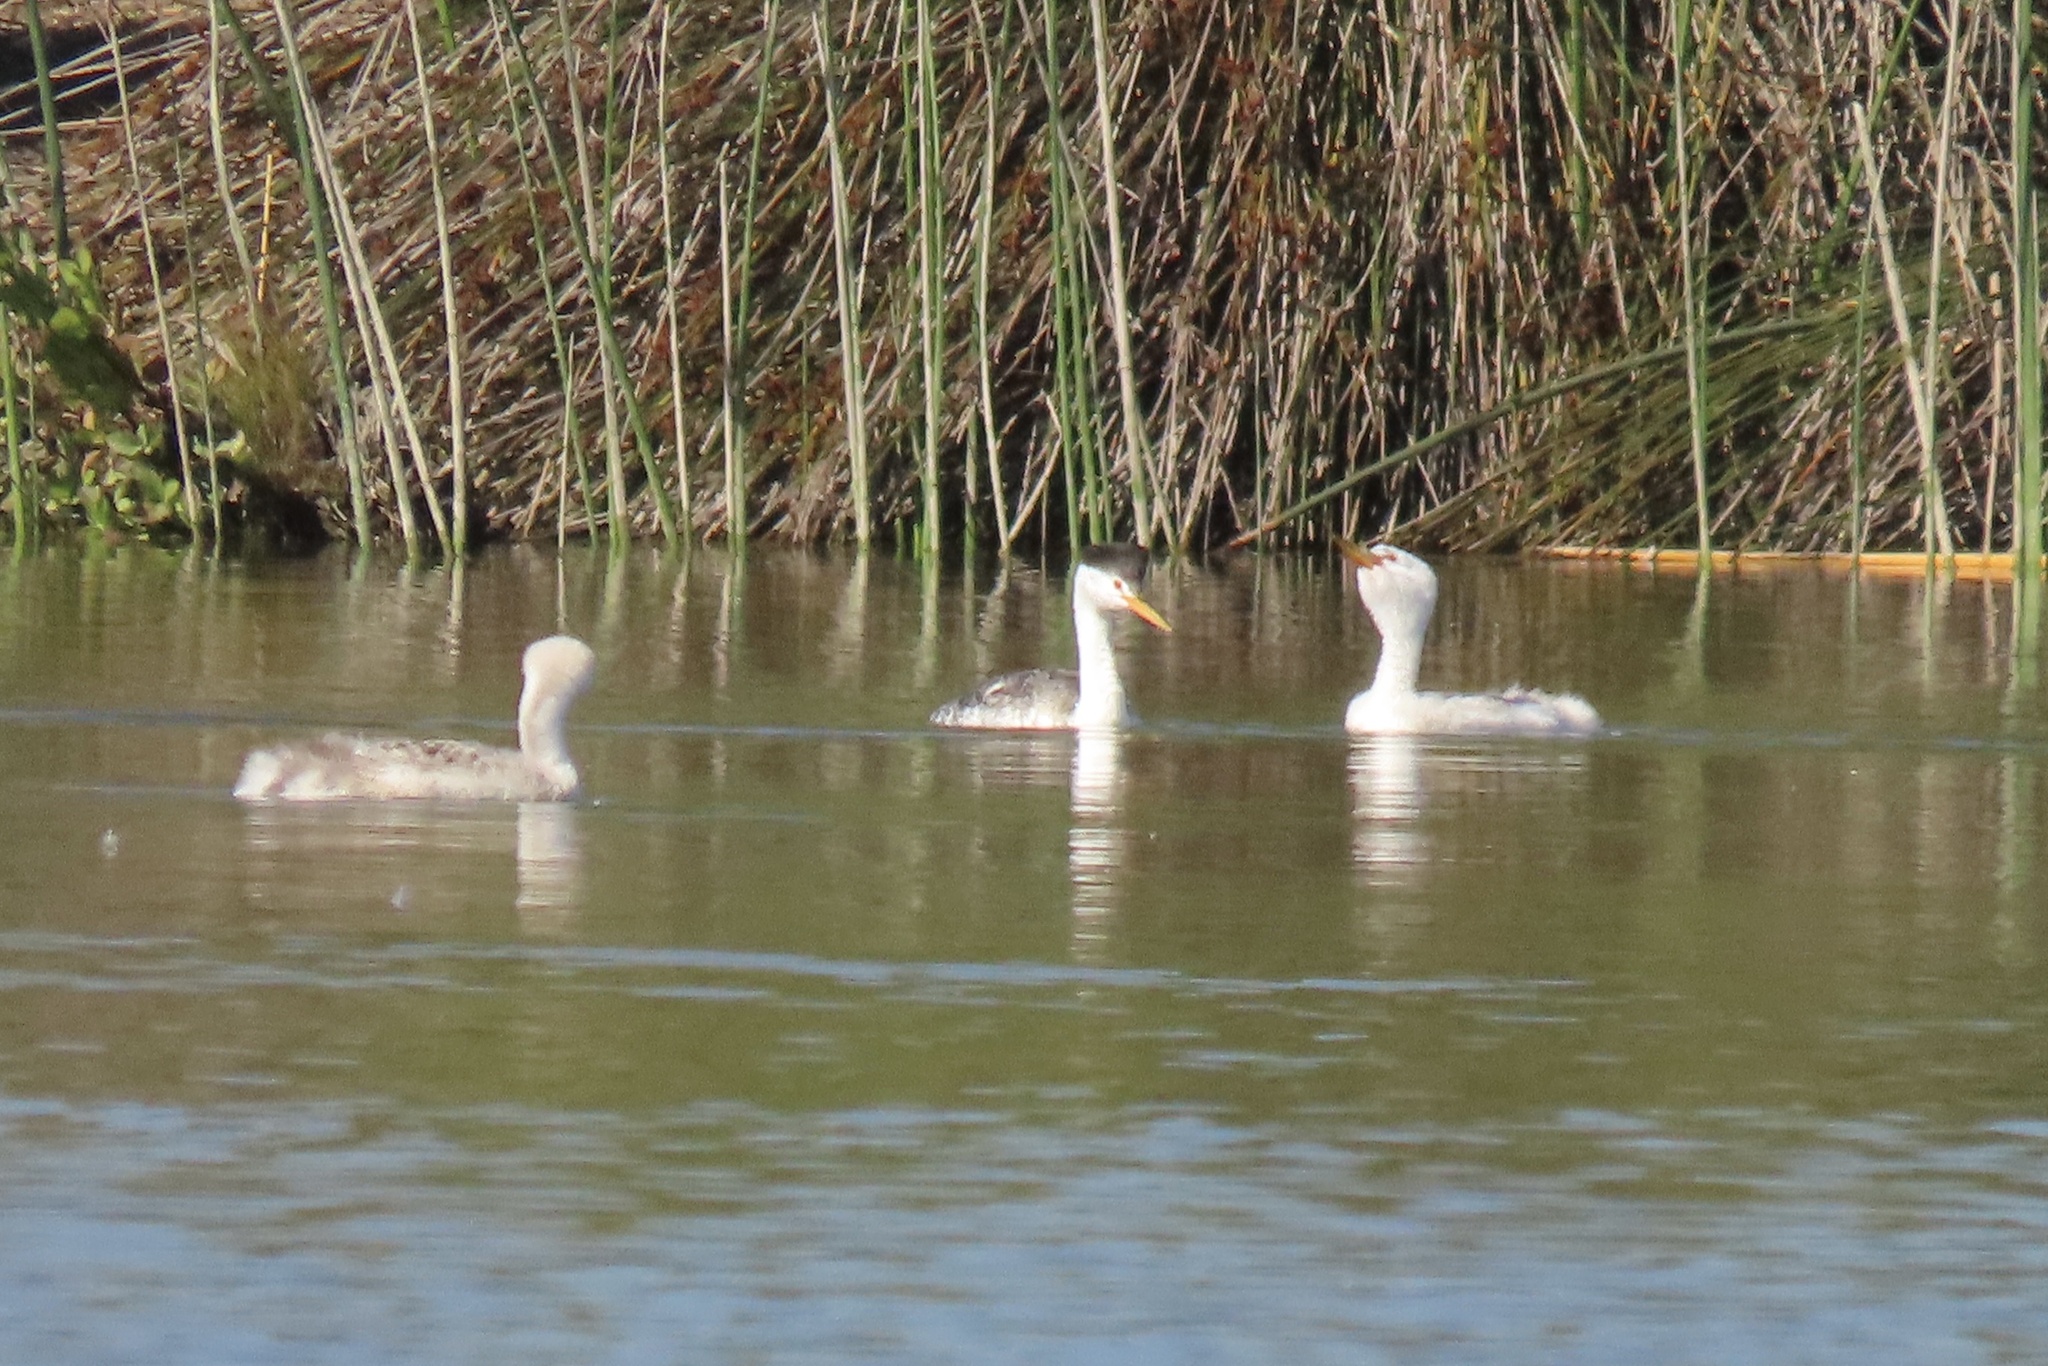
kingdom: Animalia
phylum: Chordata
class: Aves
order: Podicipediformes
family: Podicipedidae
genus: Aechmophorus
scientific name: Aechmophorus clarkii
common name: Clark's grebe
